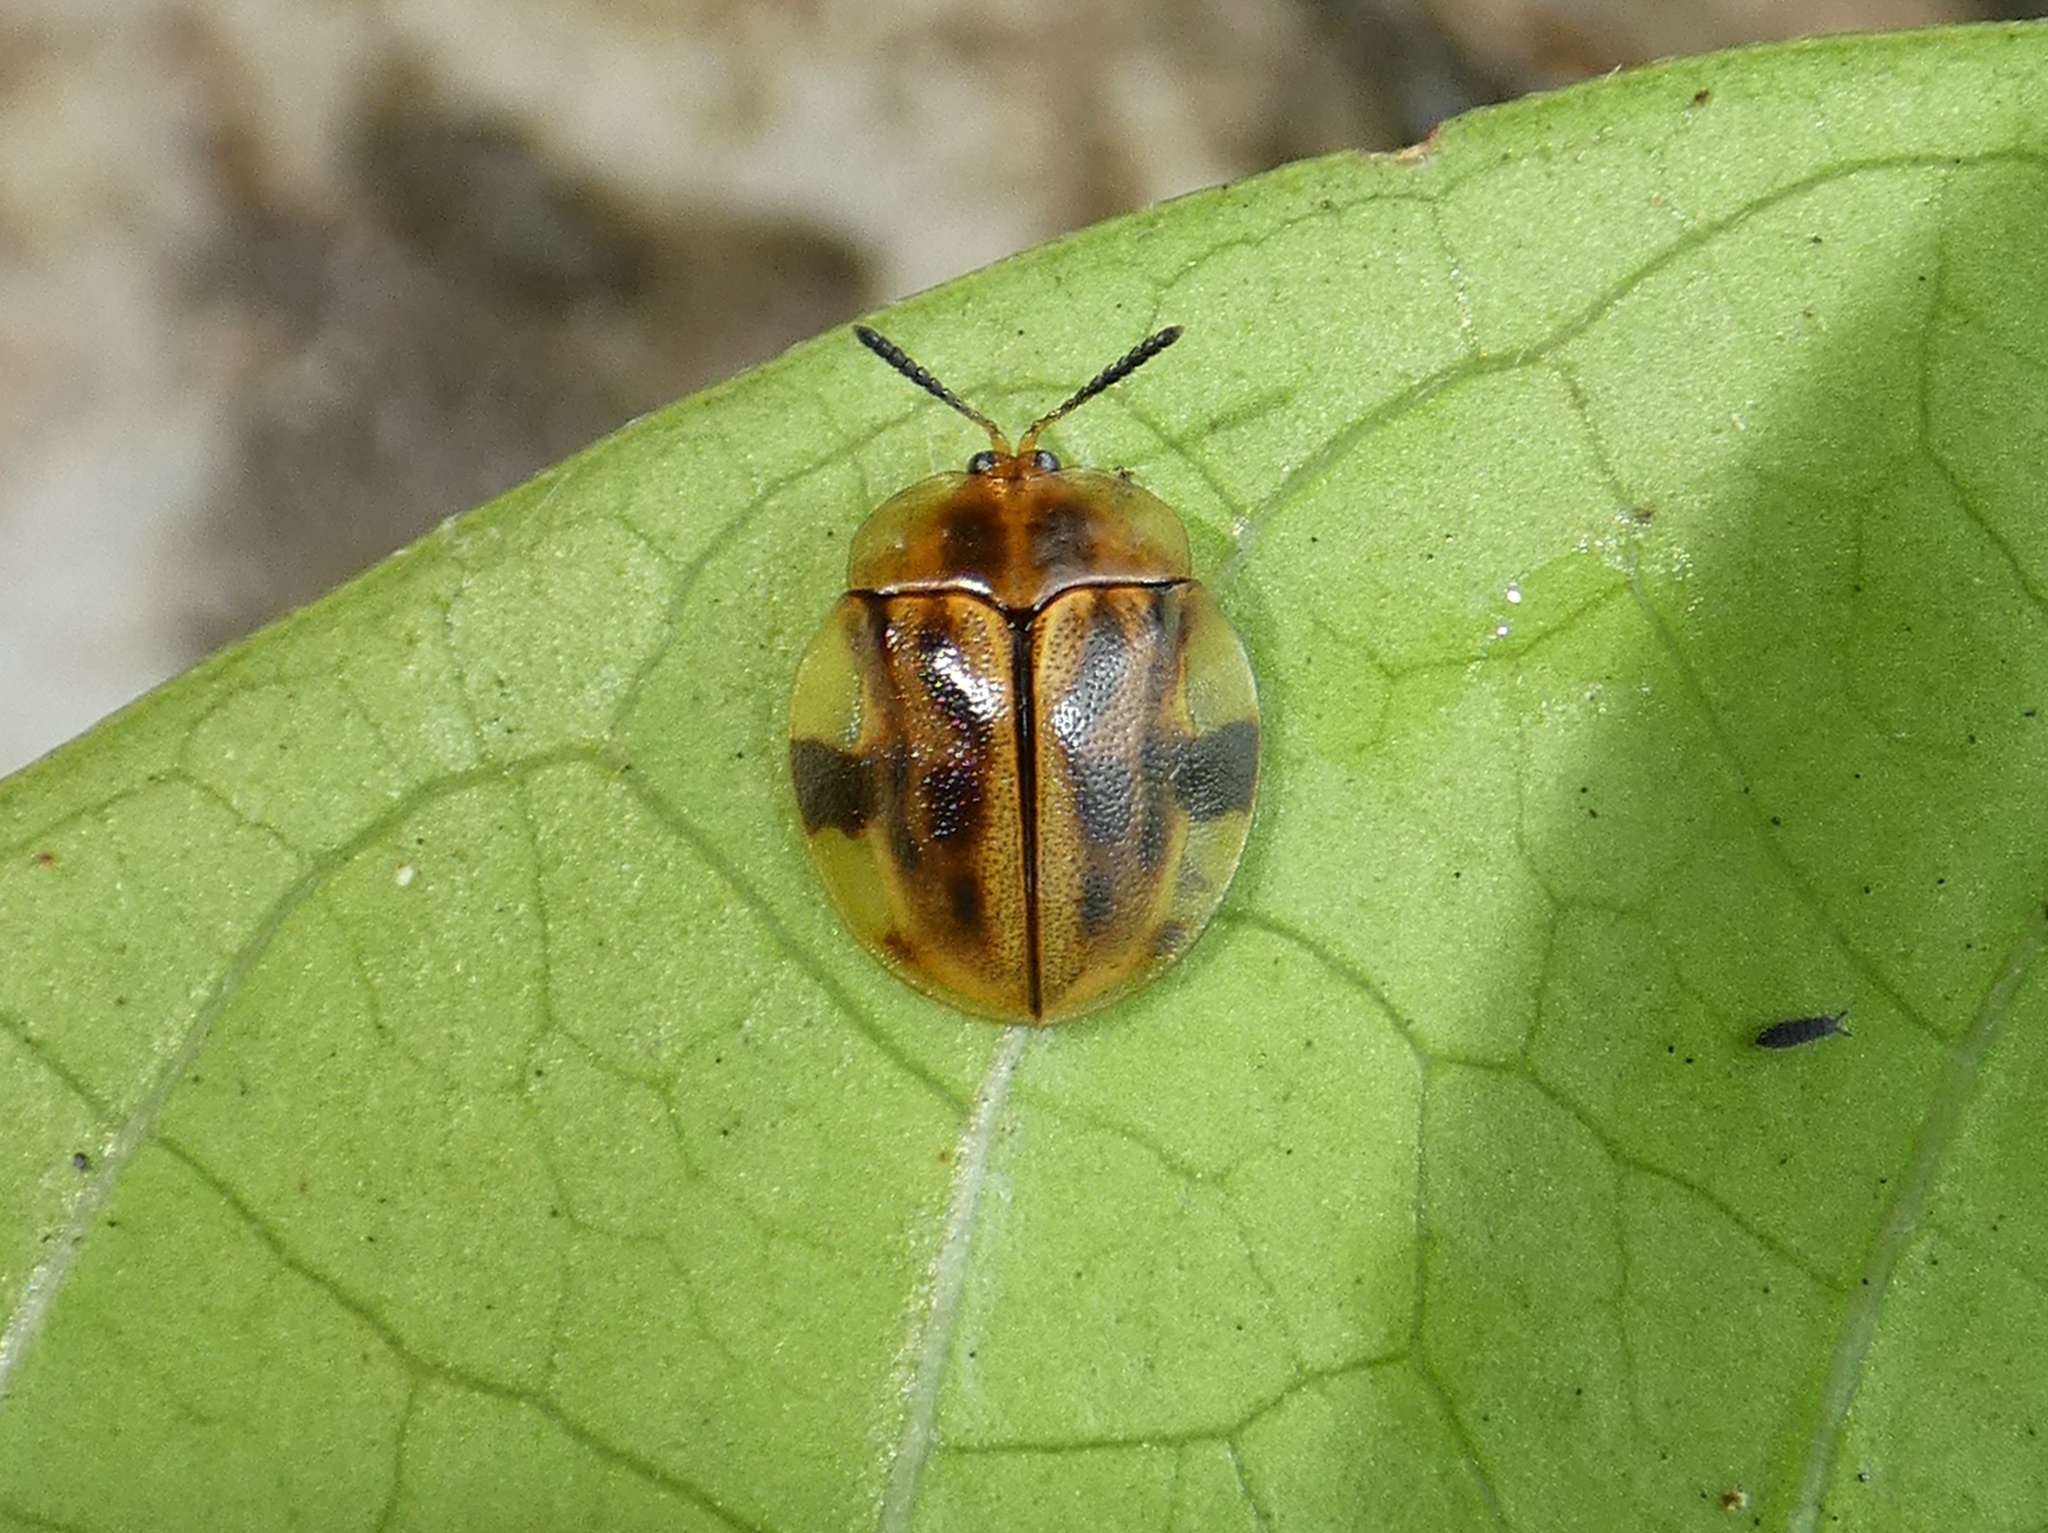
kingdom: Animalia
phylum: Arthropoda
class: Insecta
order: Coleoptera
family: Chrysomelidae
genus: Stolas
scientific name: Stolas pertusa
